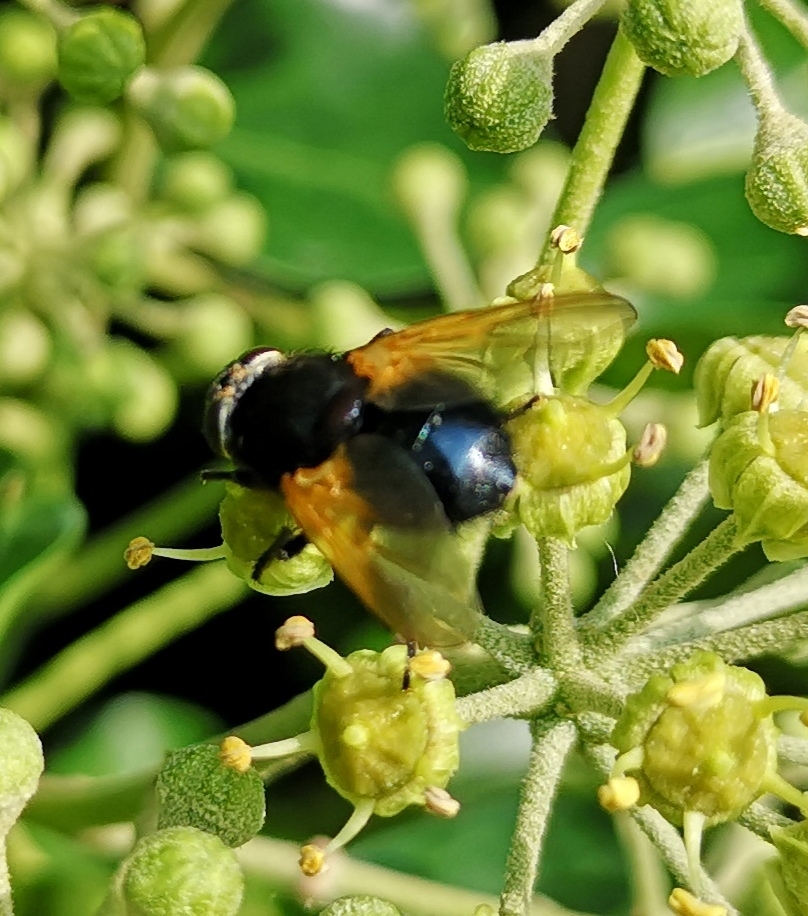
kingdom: Animalia
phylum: Arthropoda
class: Insecta
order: Diptera
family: Muscidae
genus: Mesembrina
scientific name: Mesembrina meridiana
